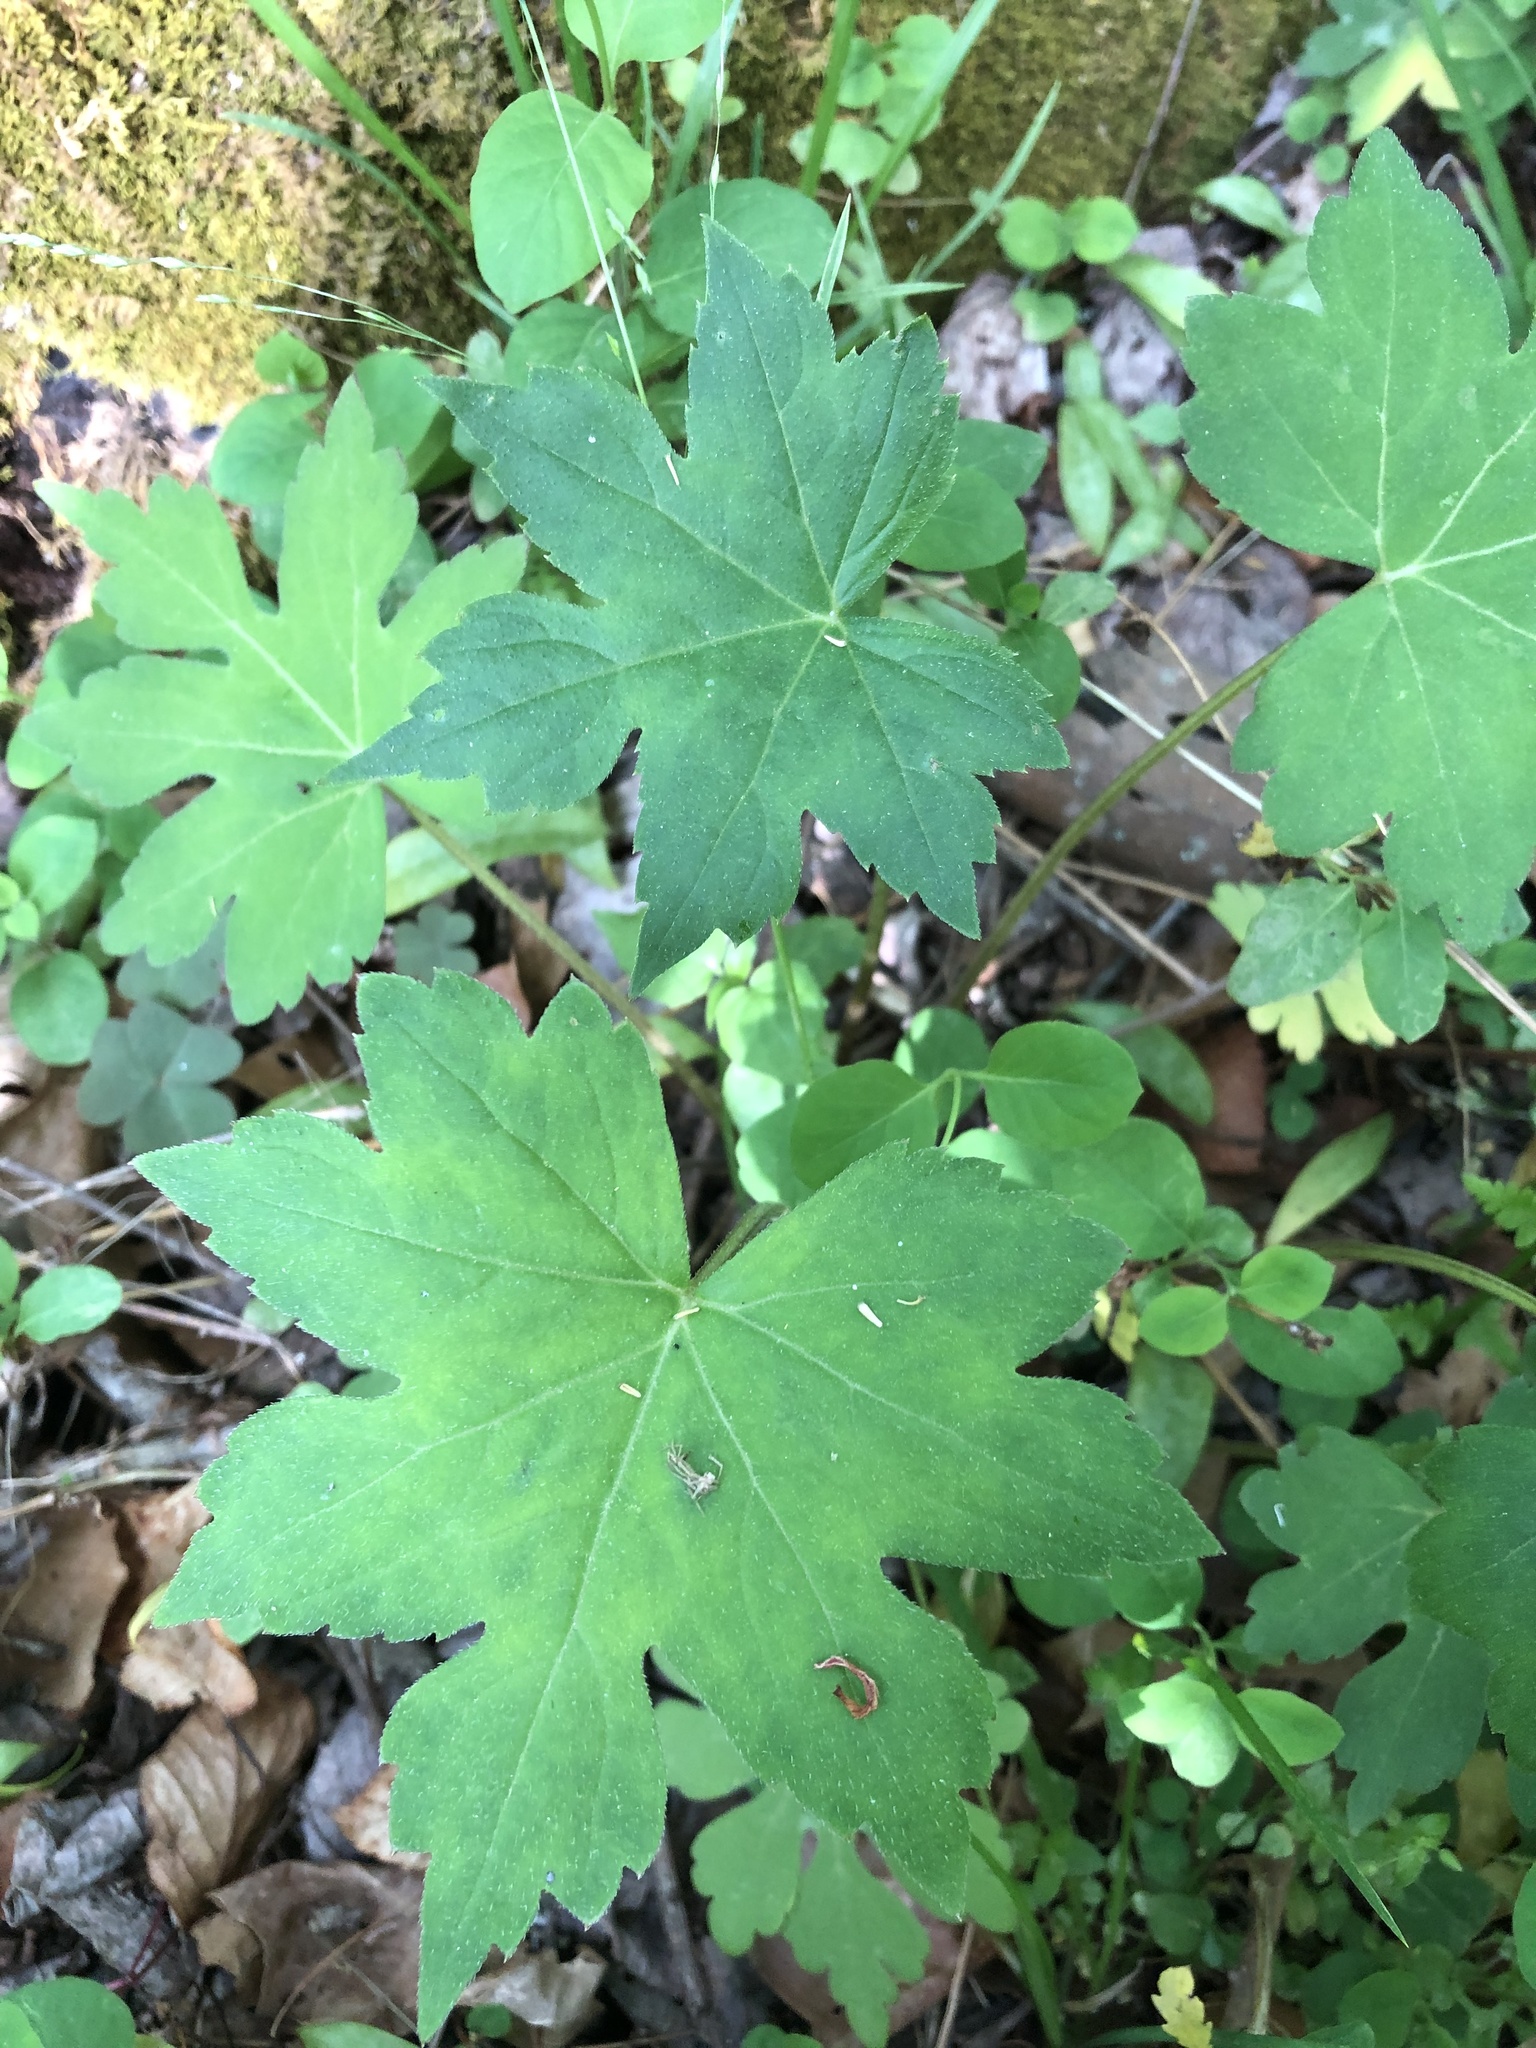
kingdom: Plantae
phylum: Tracheophyta
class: Magnoliopsida
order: Boraginales
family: Hydrophyllaceae
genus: Hydrophyllum
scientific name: Hydrophyllum canadense
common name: Canada waterleaf
